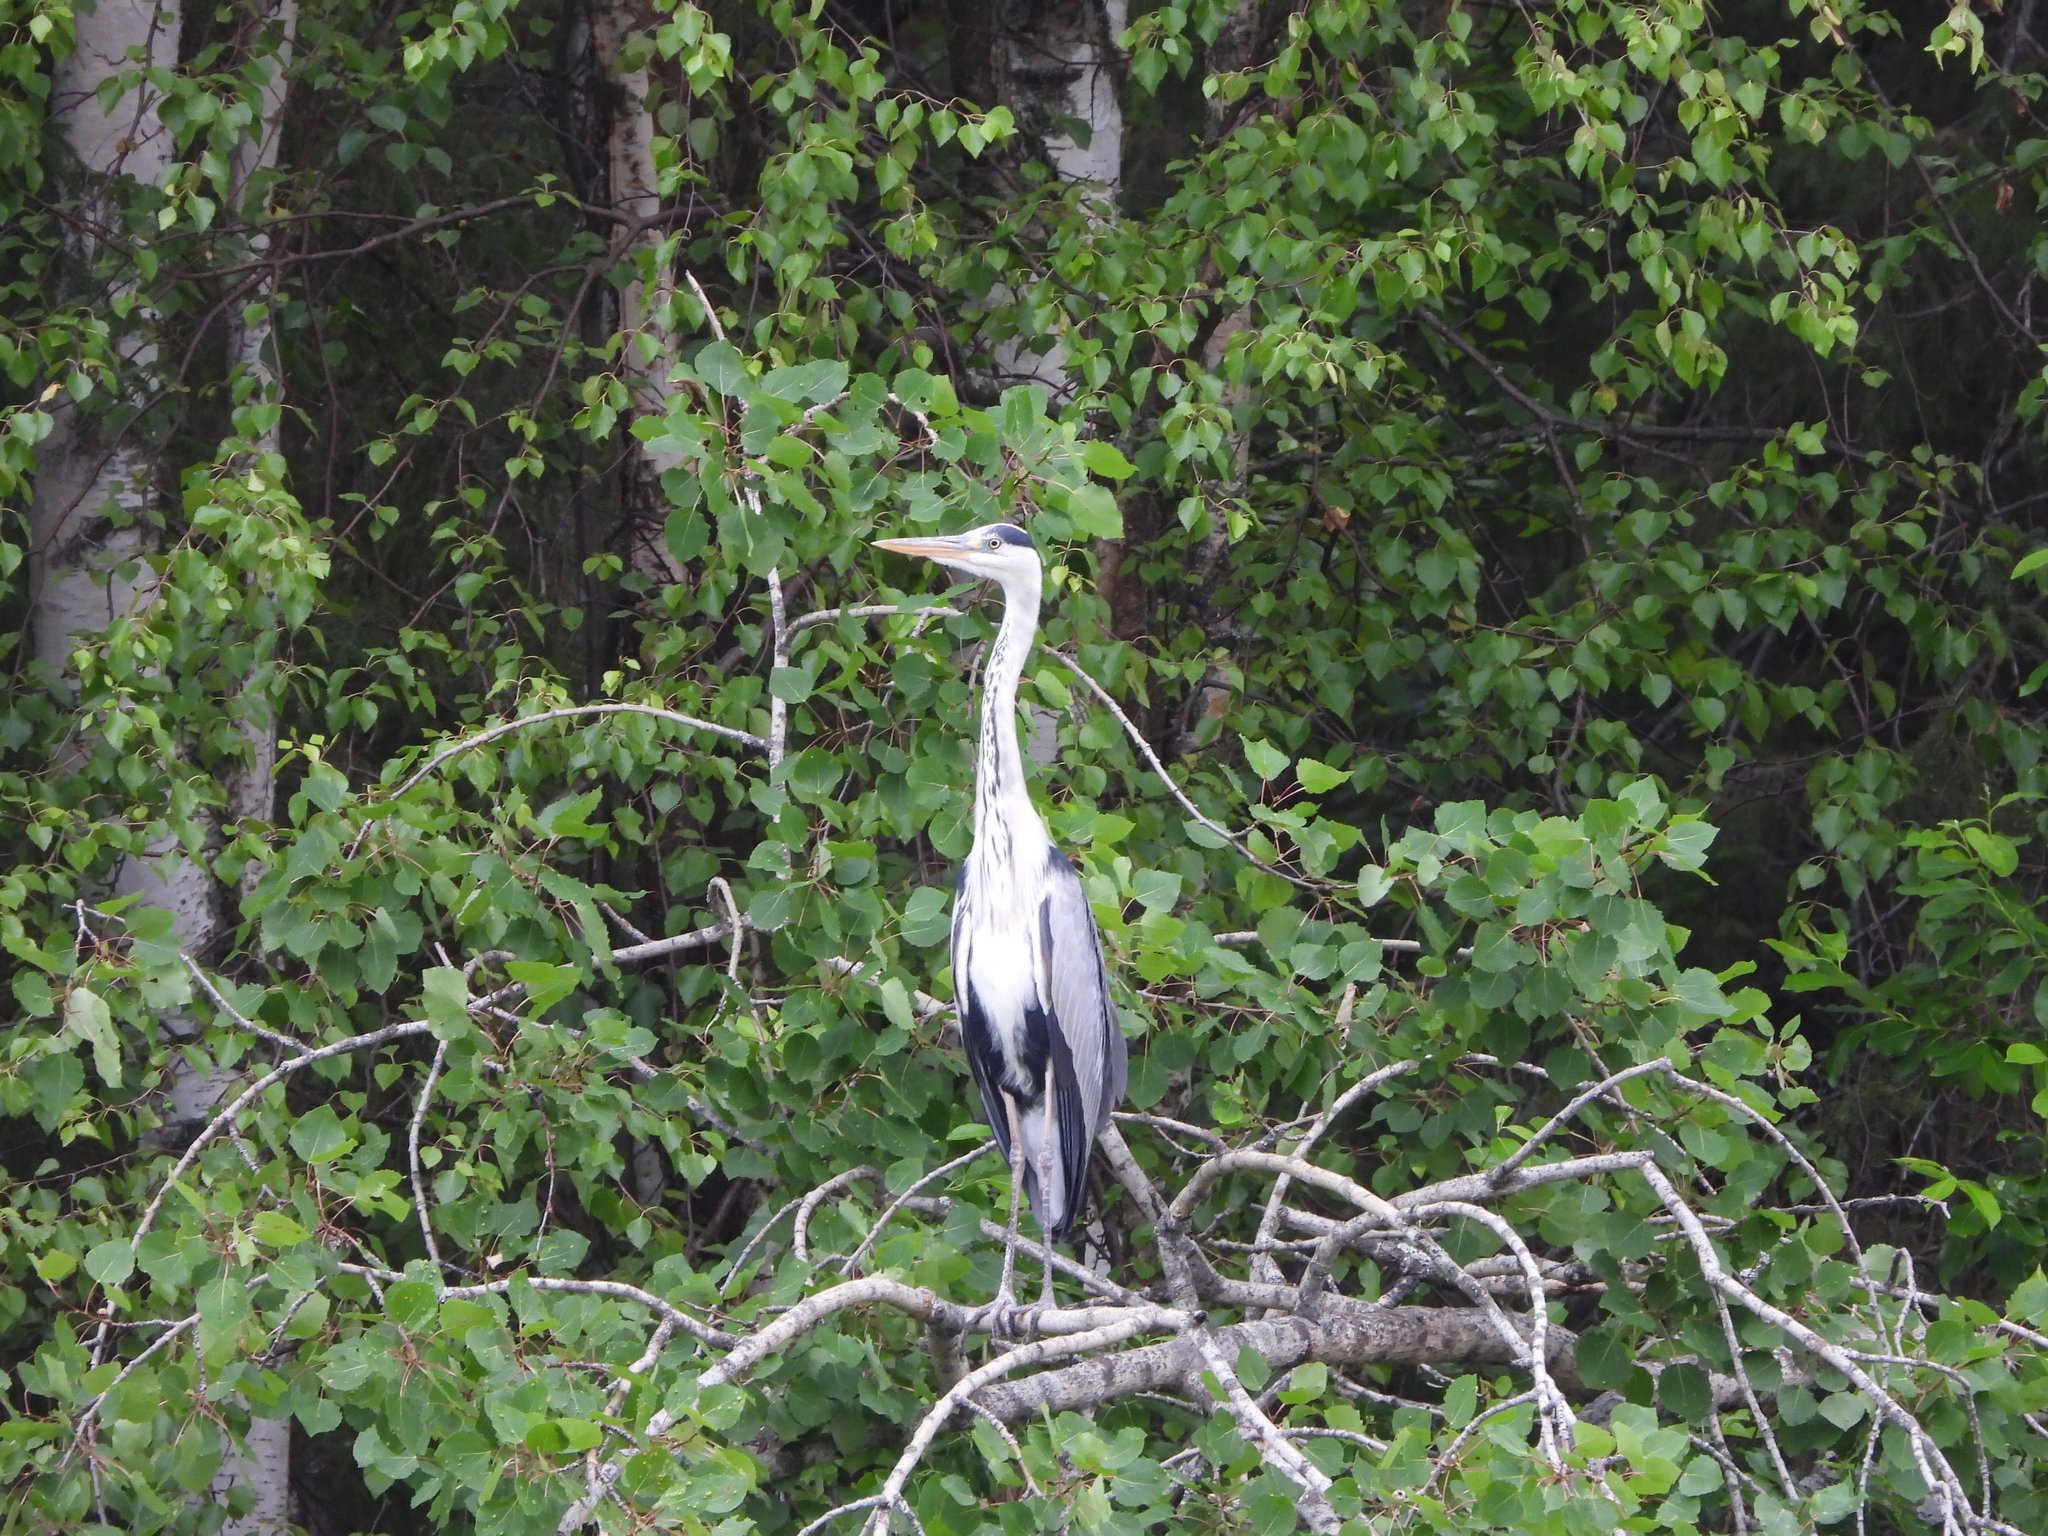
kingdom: Animalia
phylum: Chordata
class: Aves
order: Pelecaniformes
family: Ardeidae
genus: Ardea
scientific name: Ardea cinerea
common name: Grey heron
